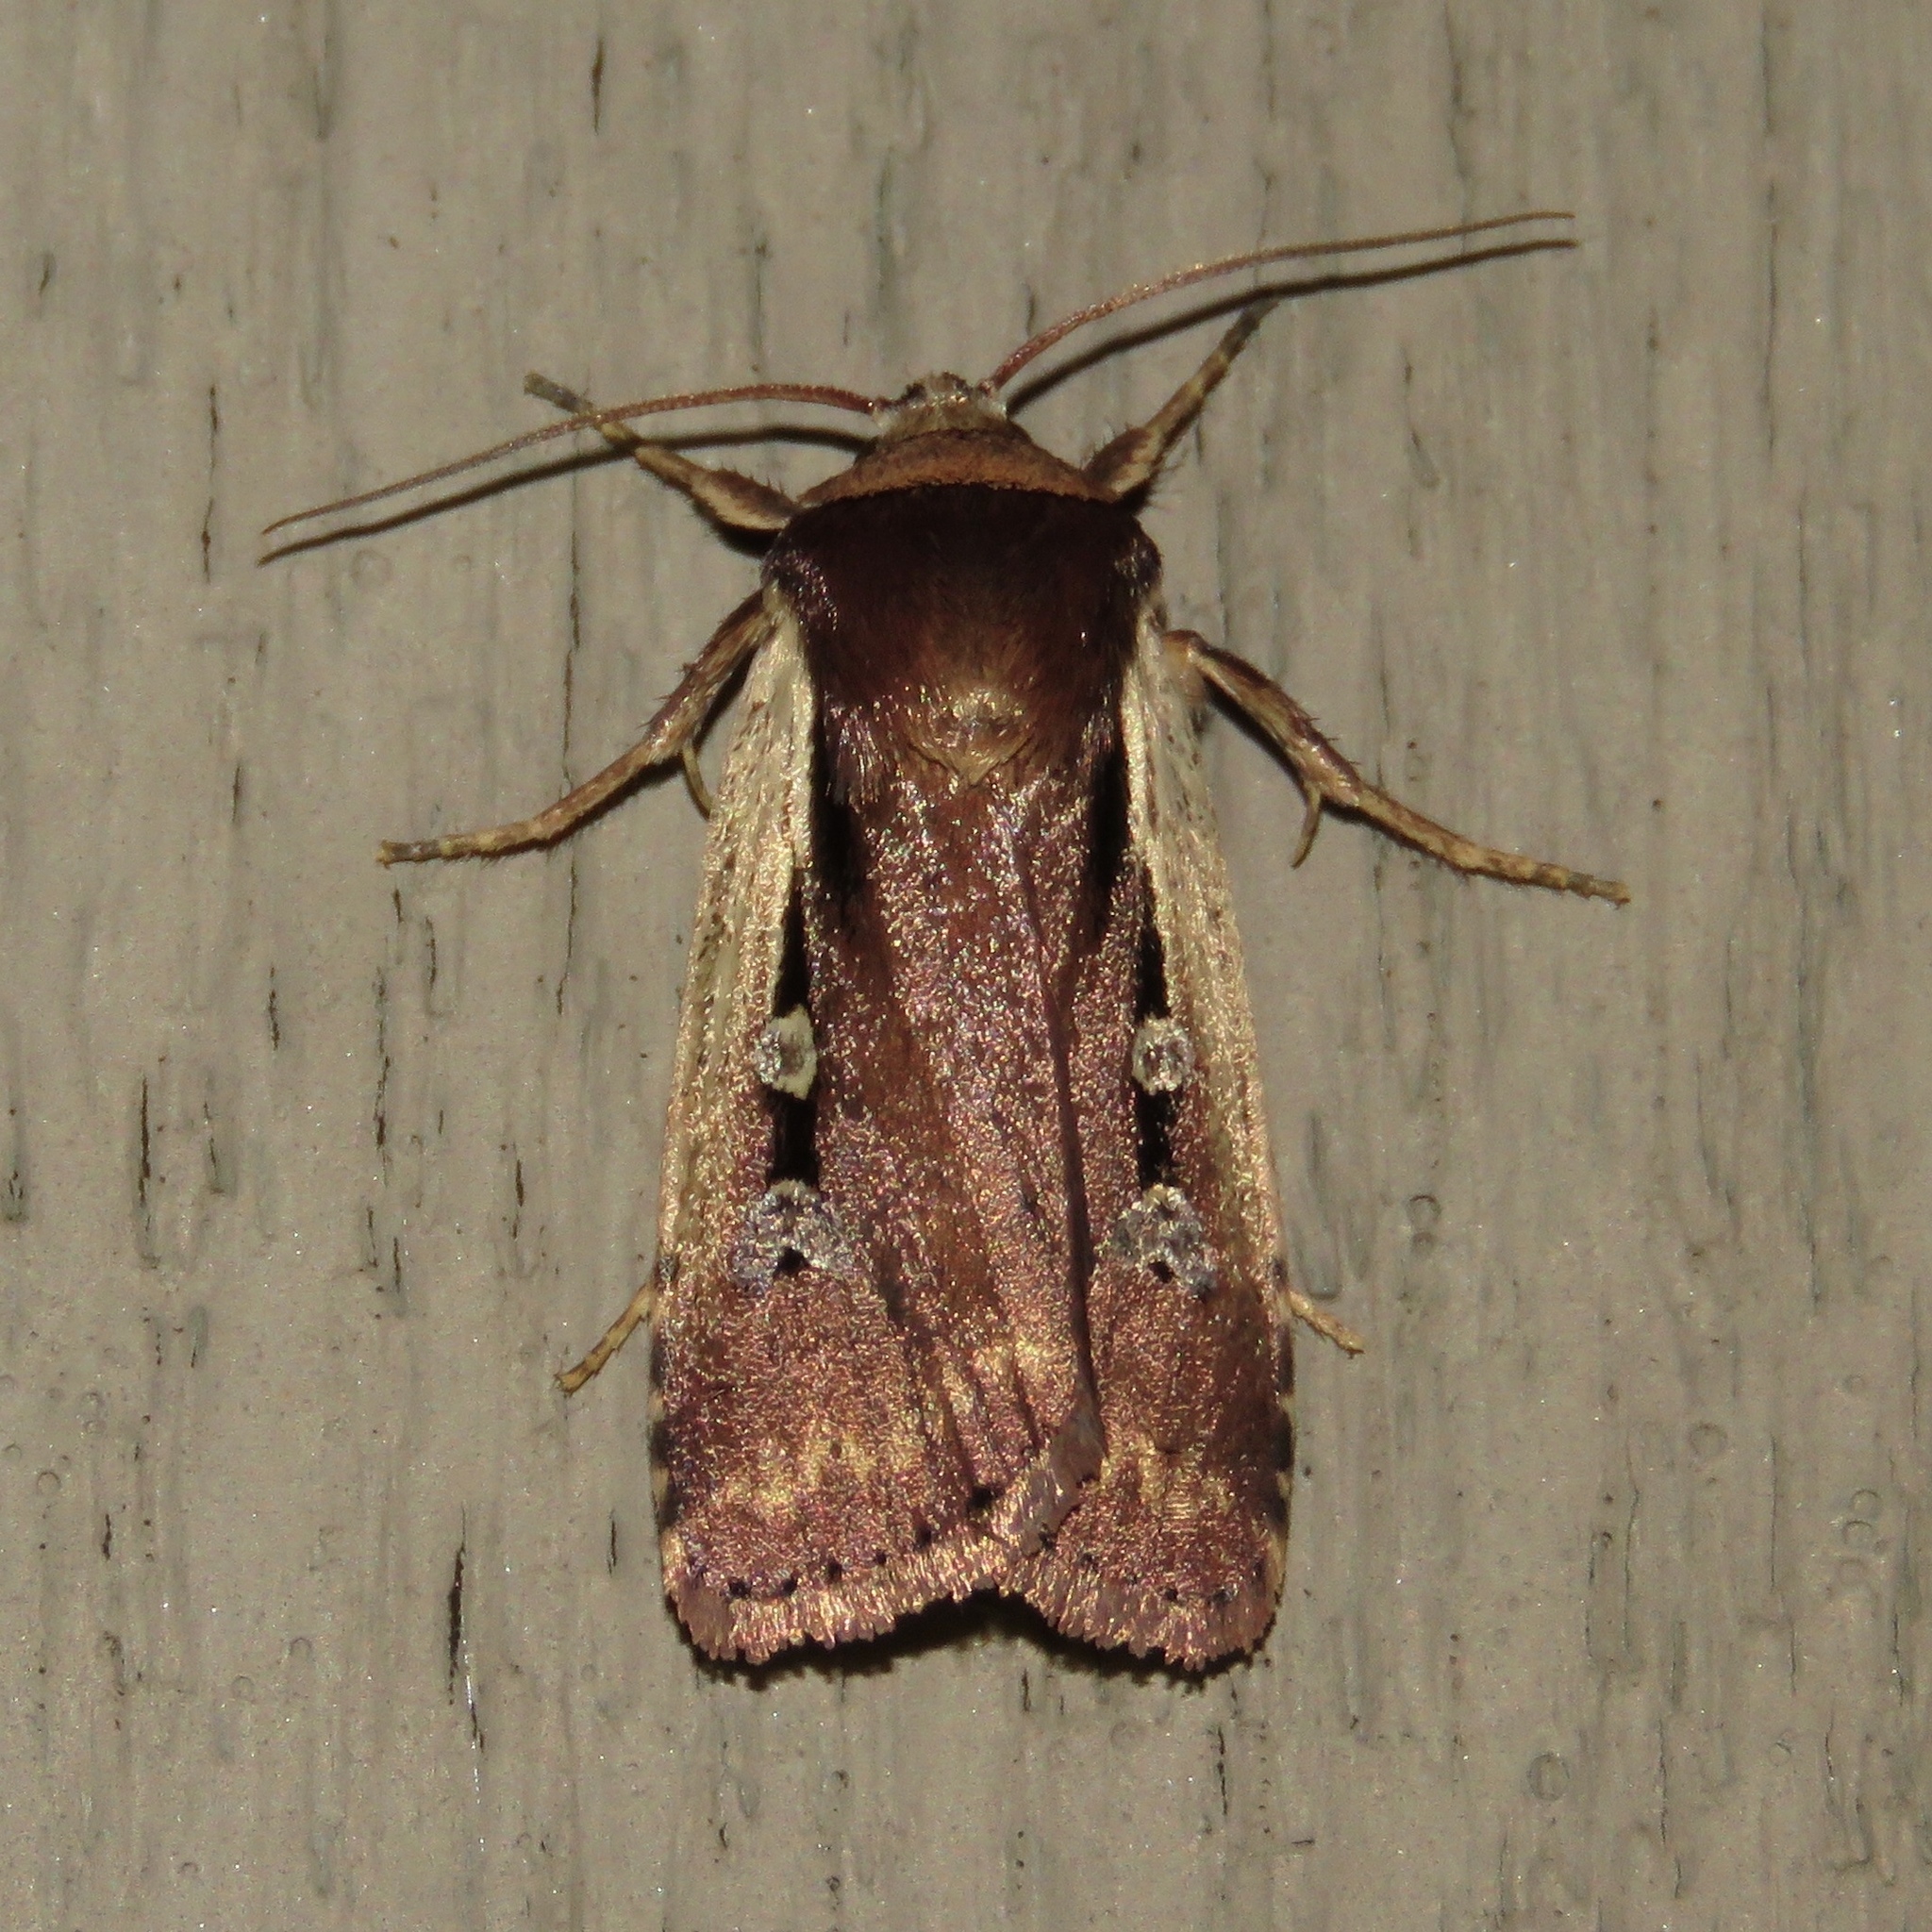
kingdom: Animalia
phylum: Arthropoda
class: Insecta
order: Lepidoptera
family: Noctuidae
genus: Ochropleura
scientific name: Ochropleura implecta
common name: Flame-shouldered dart
